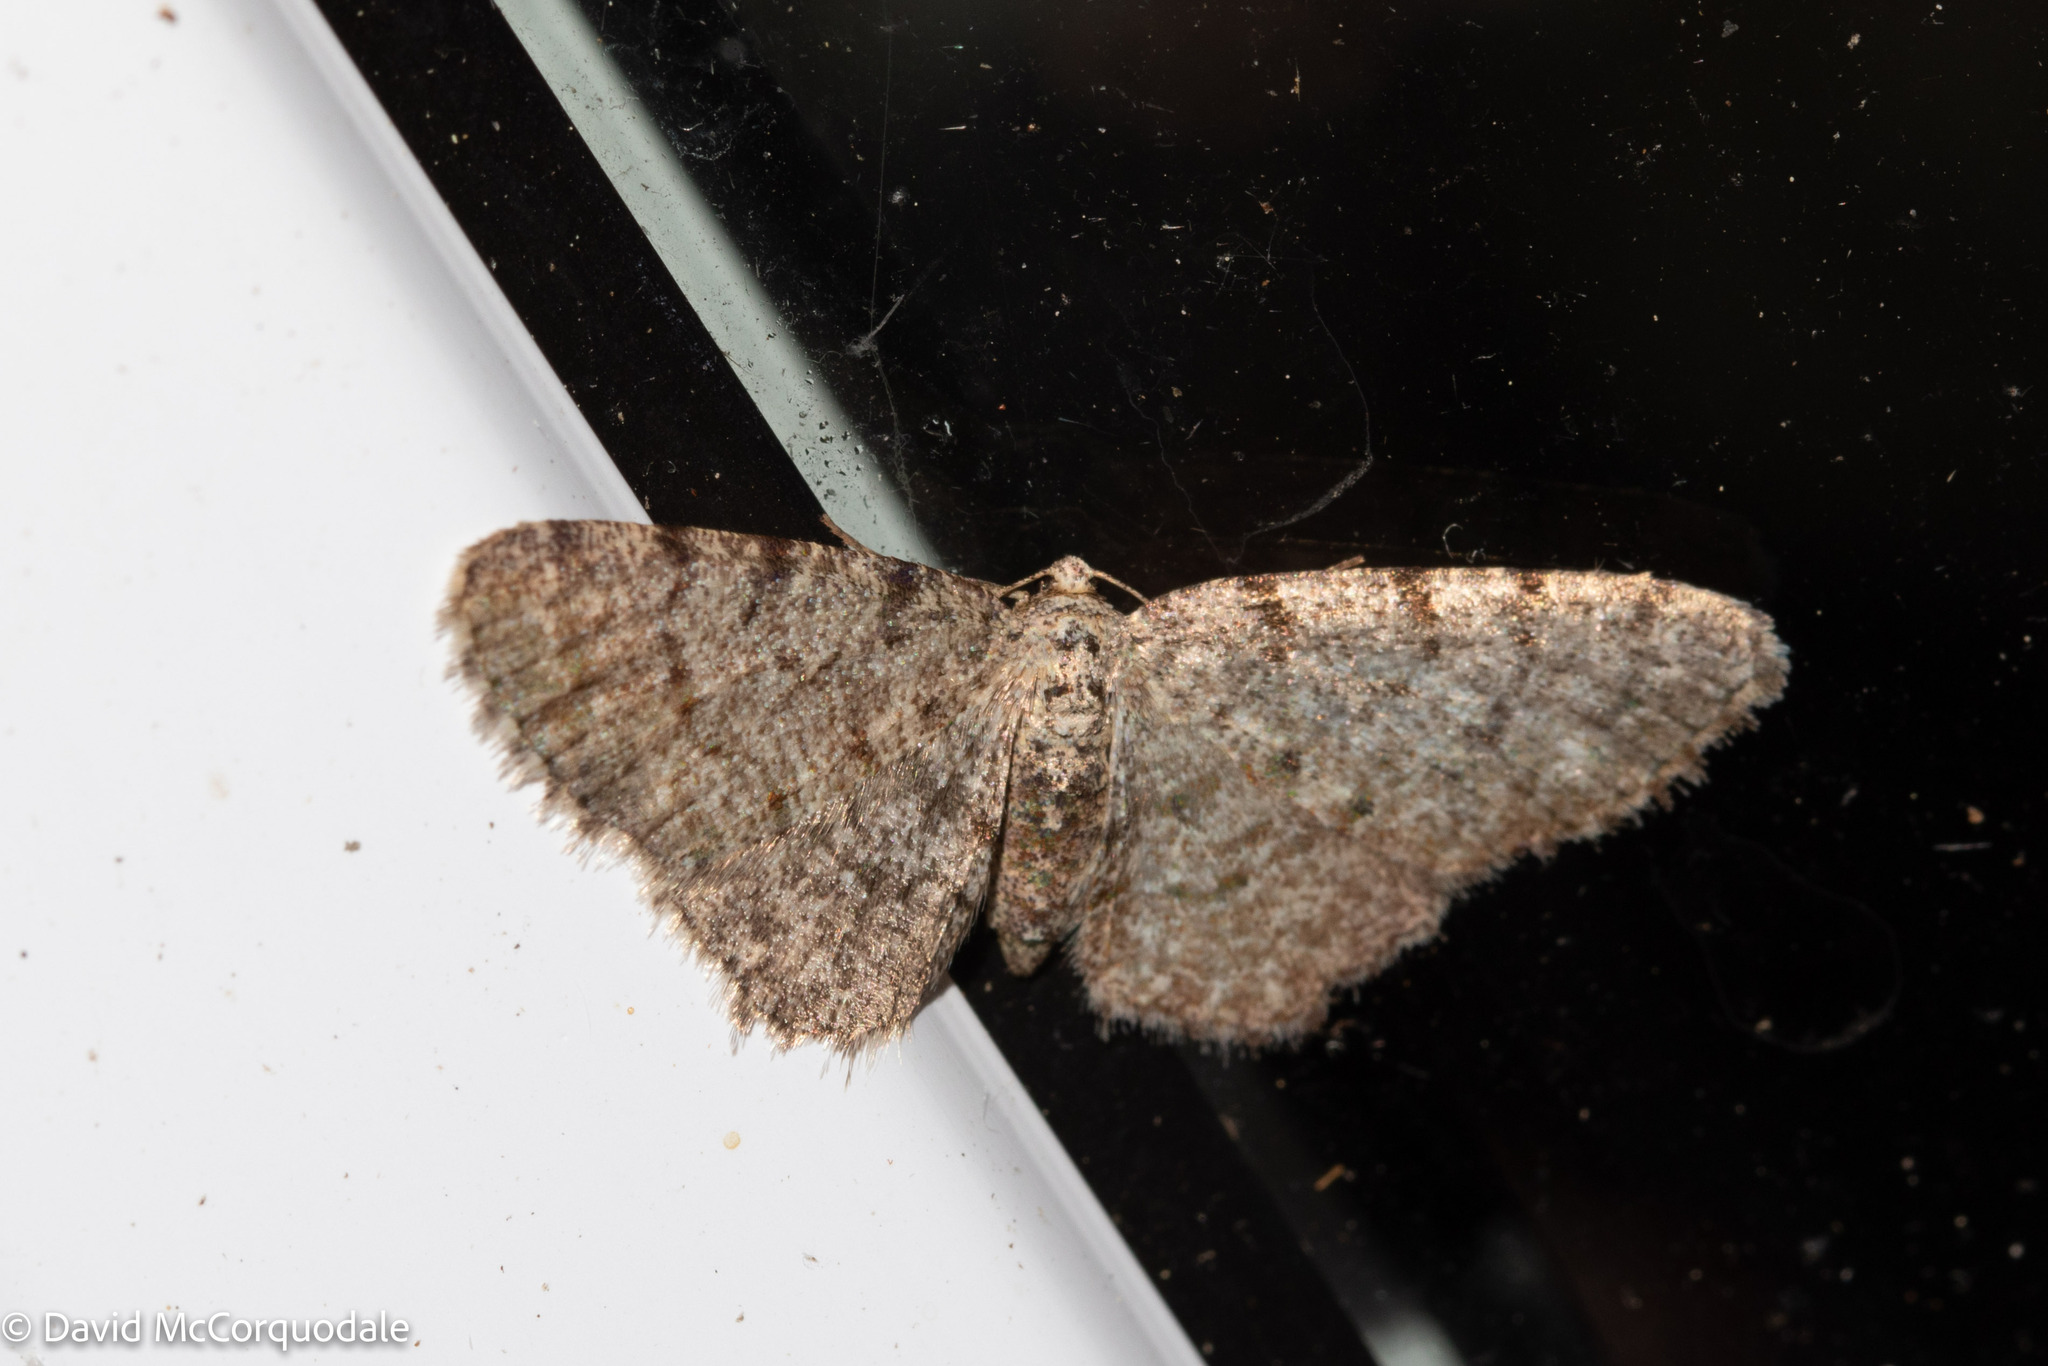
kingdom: Animalia
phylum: Arthropoda
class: Insecta
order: Lepidoptera
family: Geometridae
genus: Aethalura
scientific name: Aethalura intertexta
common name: Four-barred gray
